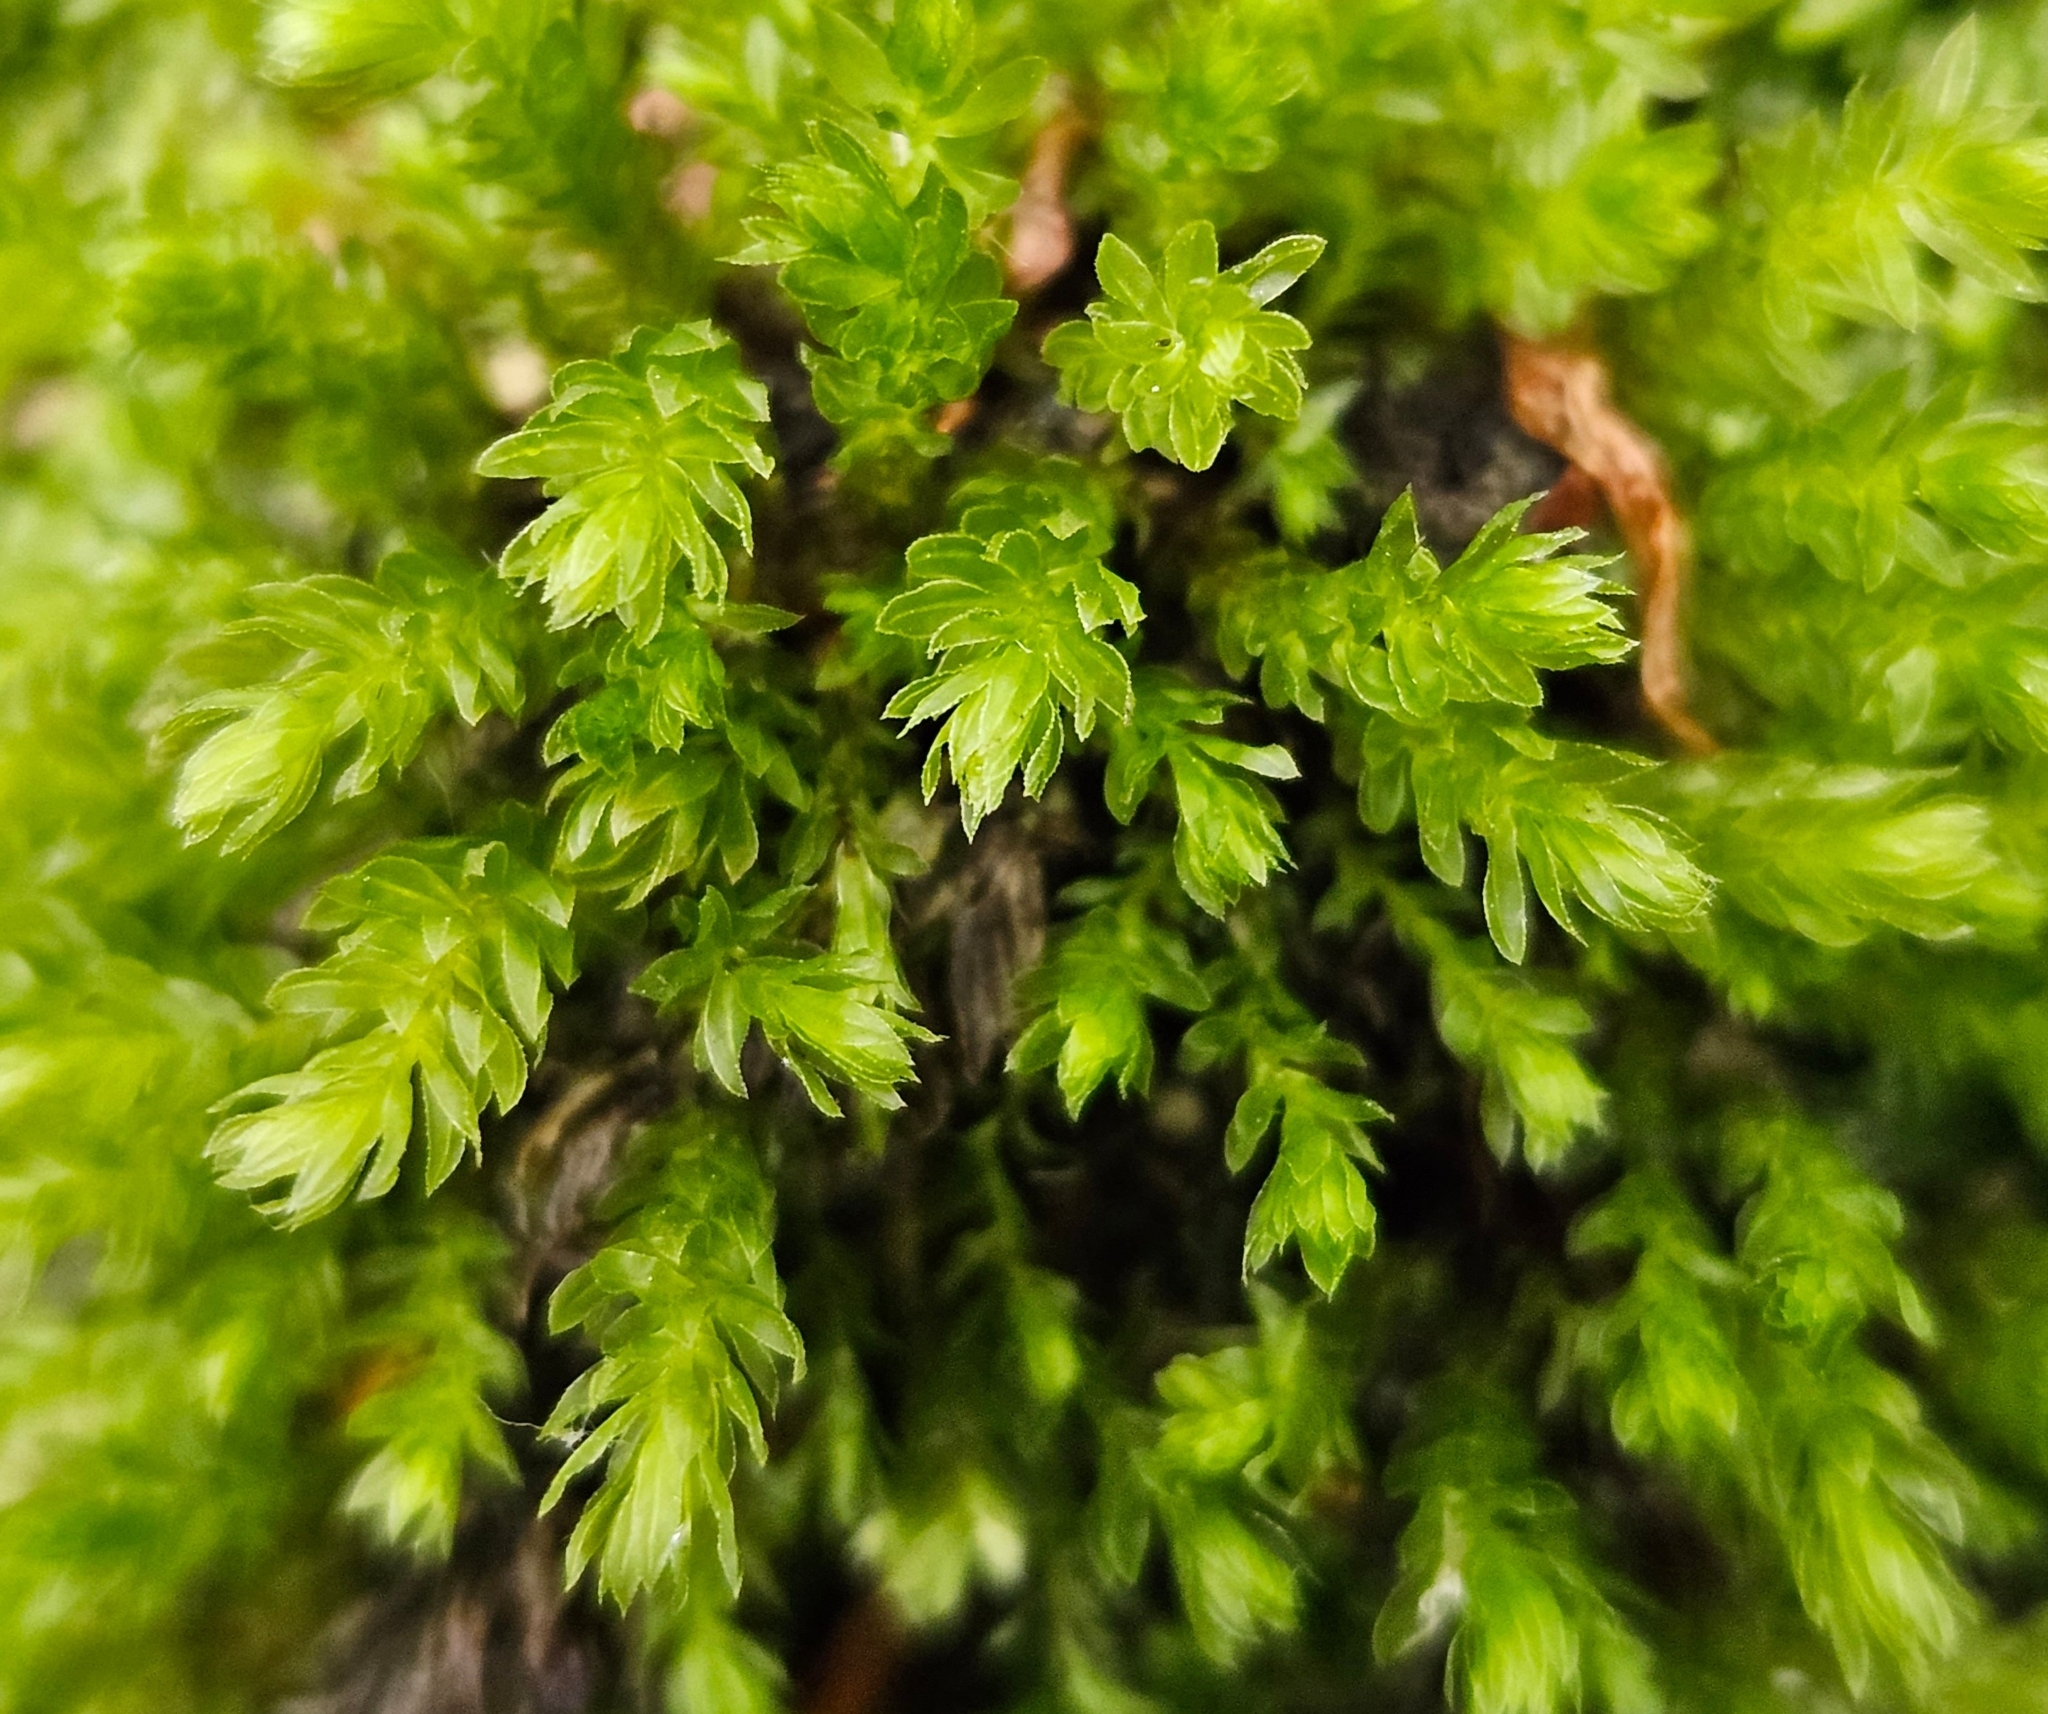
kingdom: Plantae
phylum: Bryophyta
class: Bryopsida
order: Bryales
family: Mniaceae
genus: Mnium
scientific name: Mnium hornum
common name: Swan's-neck leafy moss
